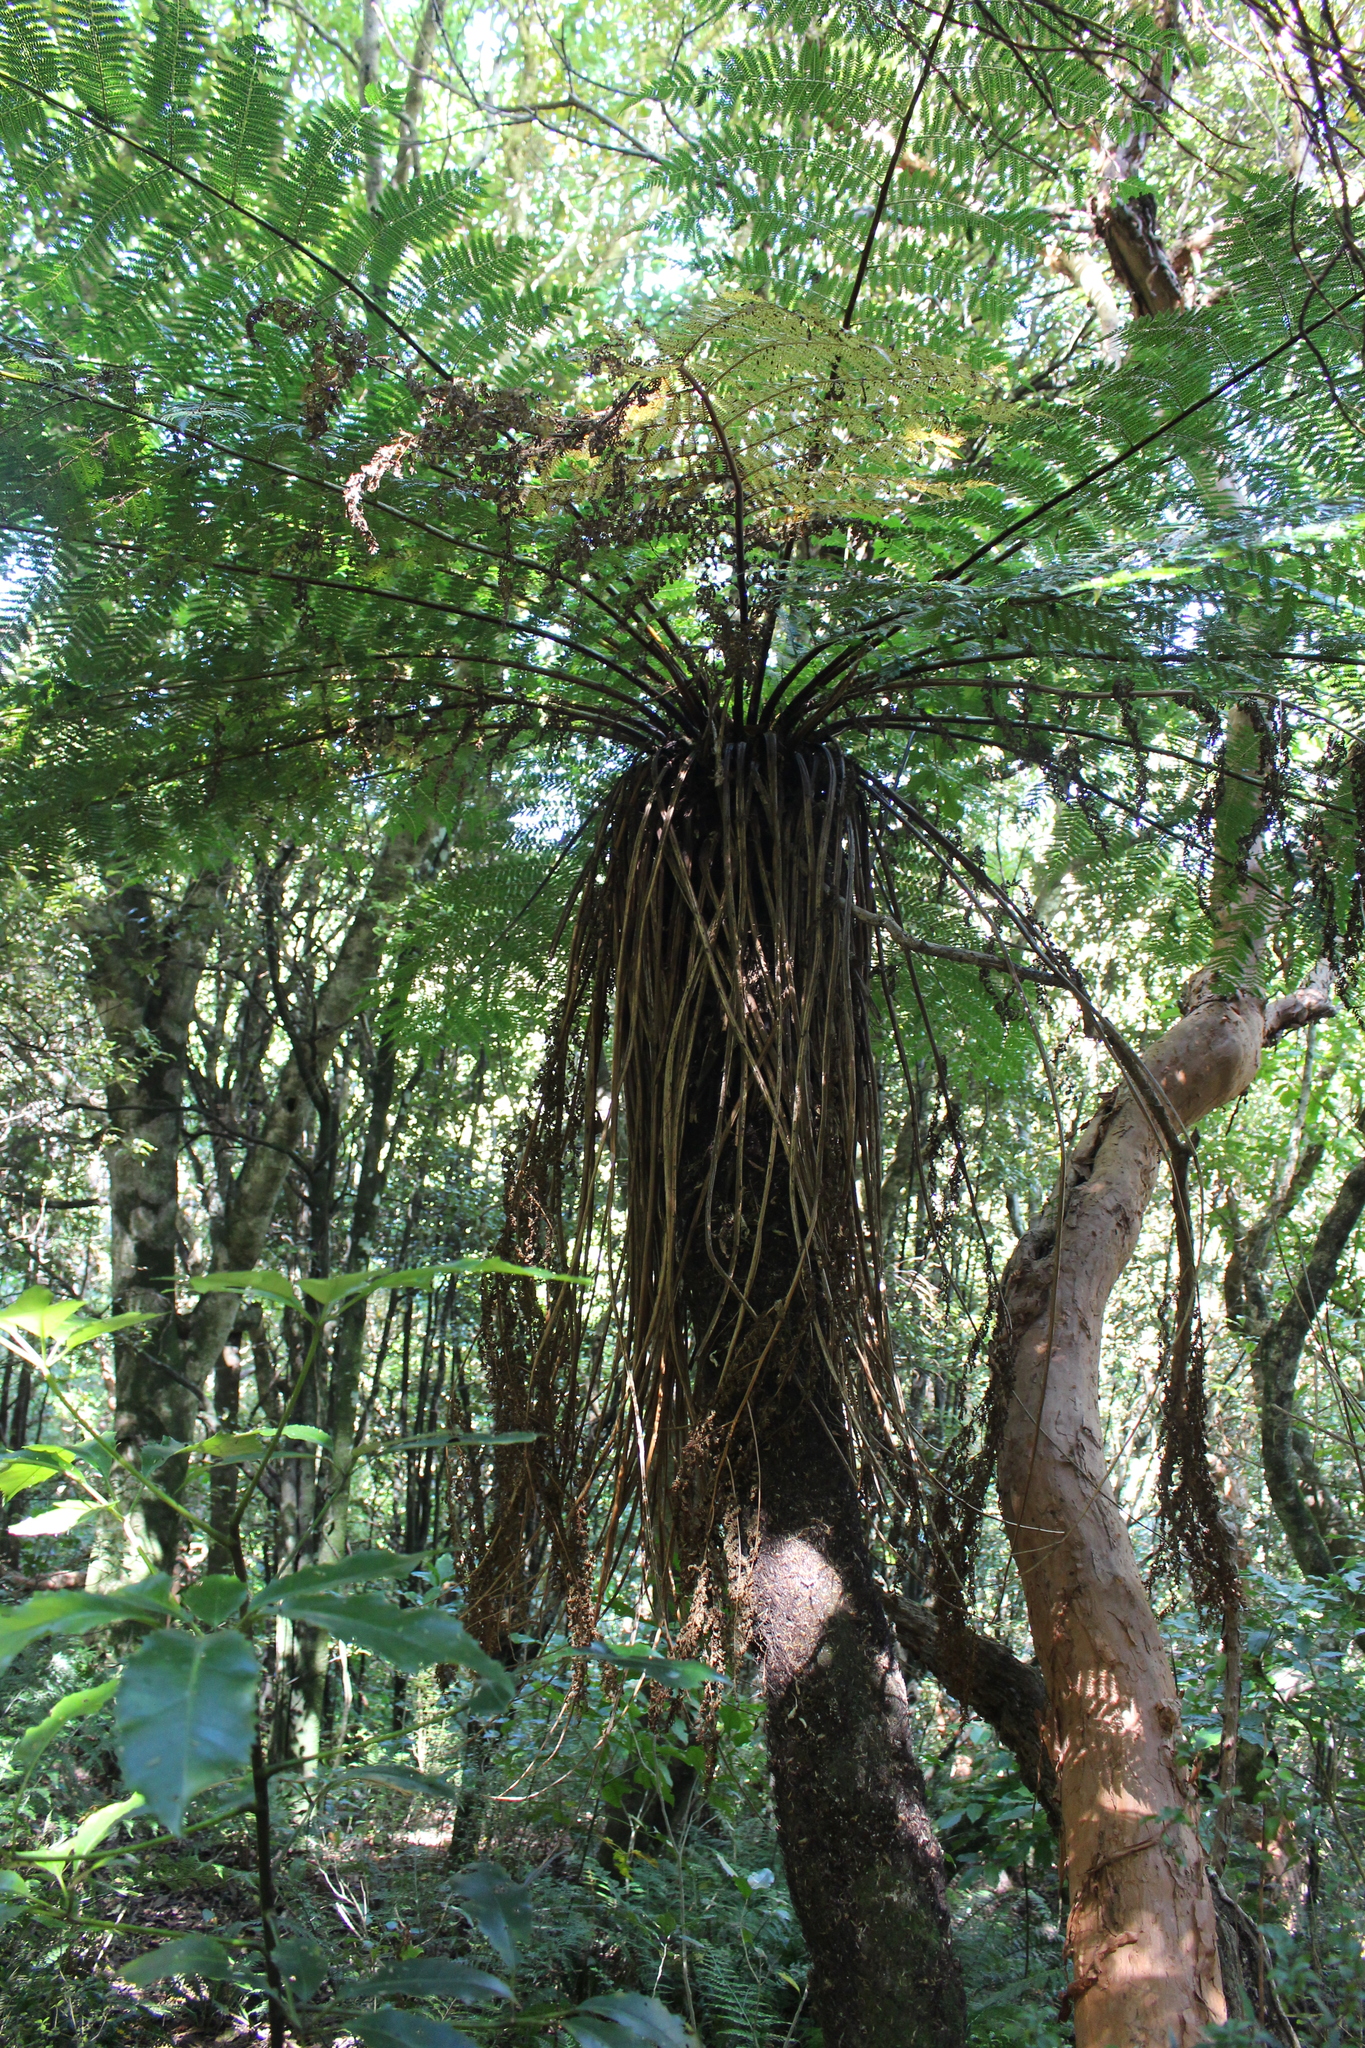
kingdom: Plantae
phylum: Tracheophyta
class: Polypodiopsida
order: Cyatheales
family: Cyatheaceae
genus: Alsophila
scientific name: Alsophila smithii
